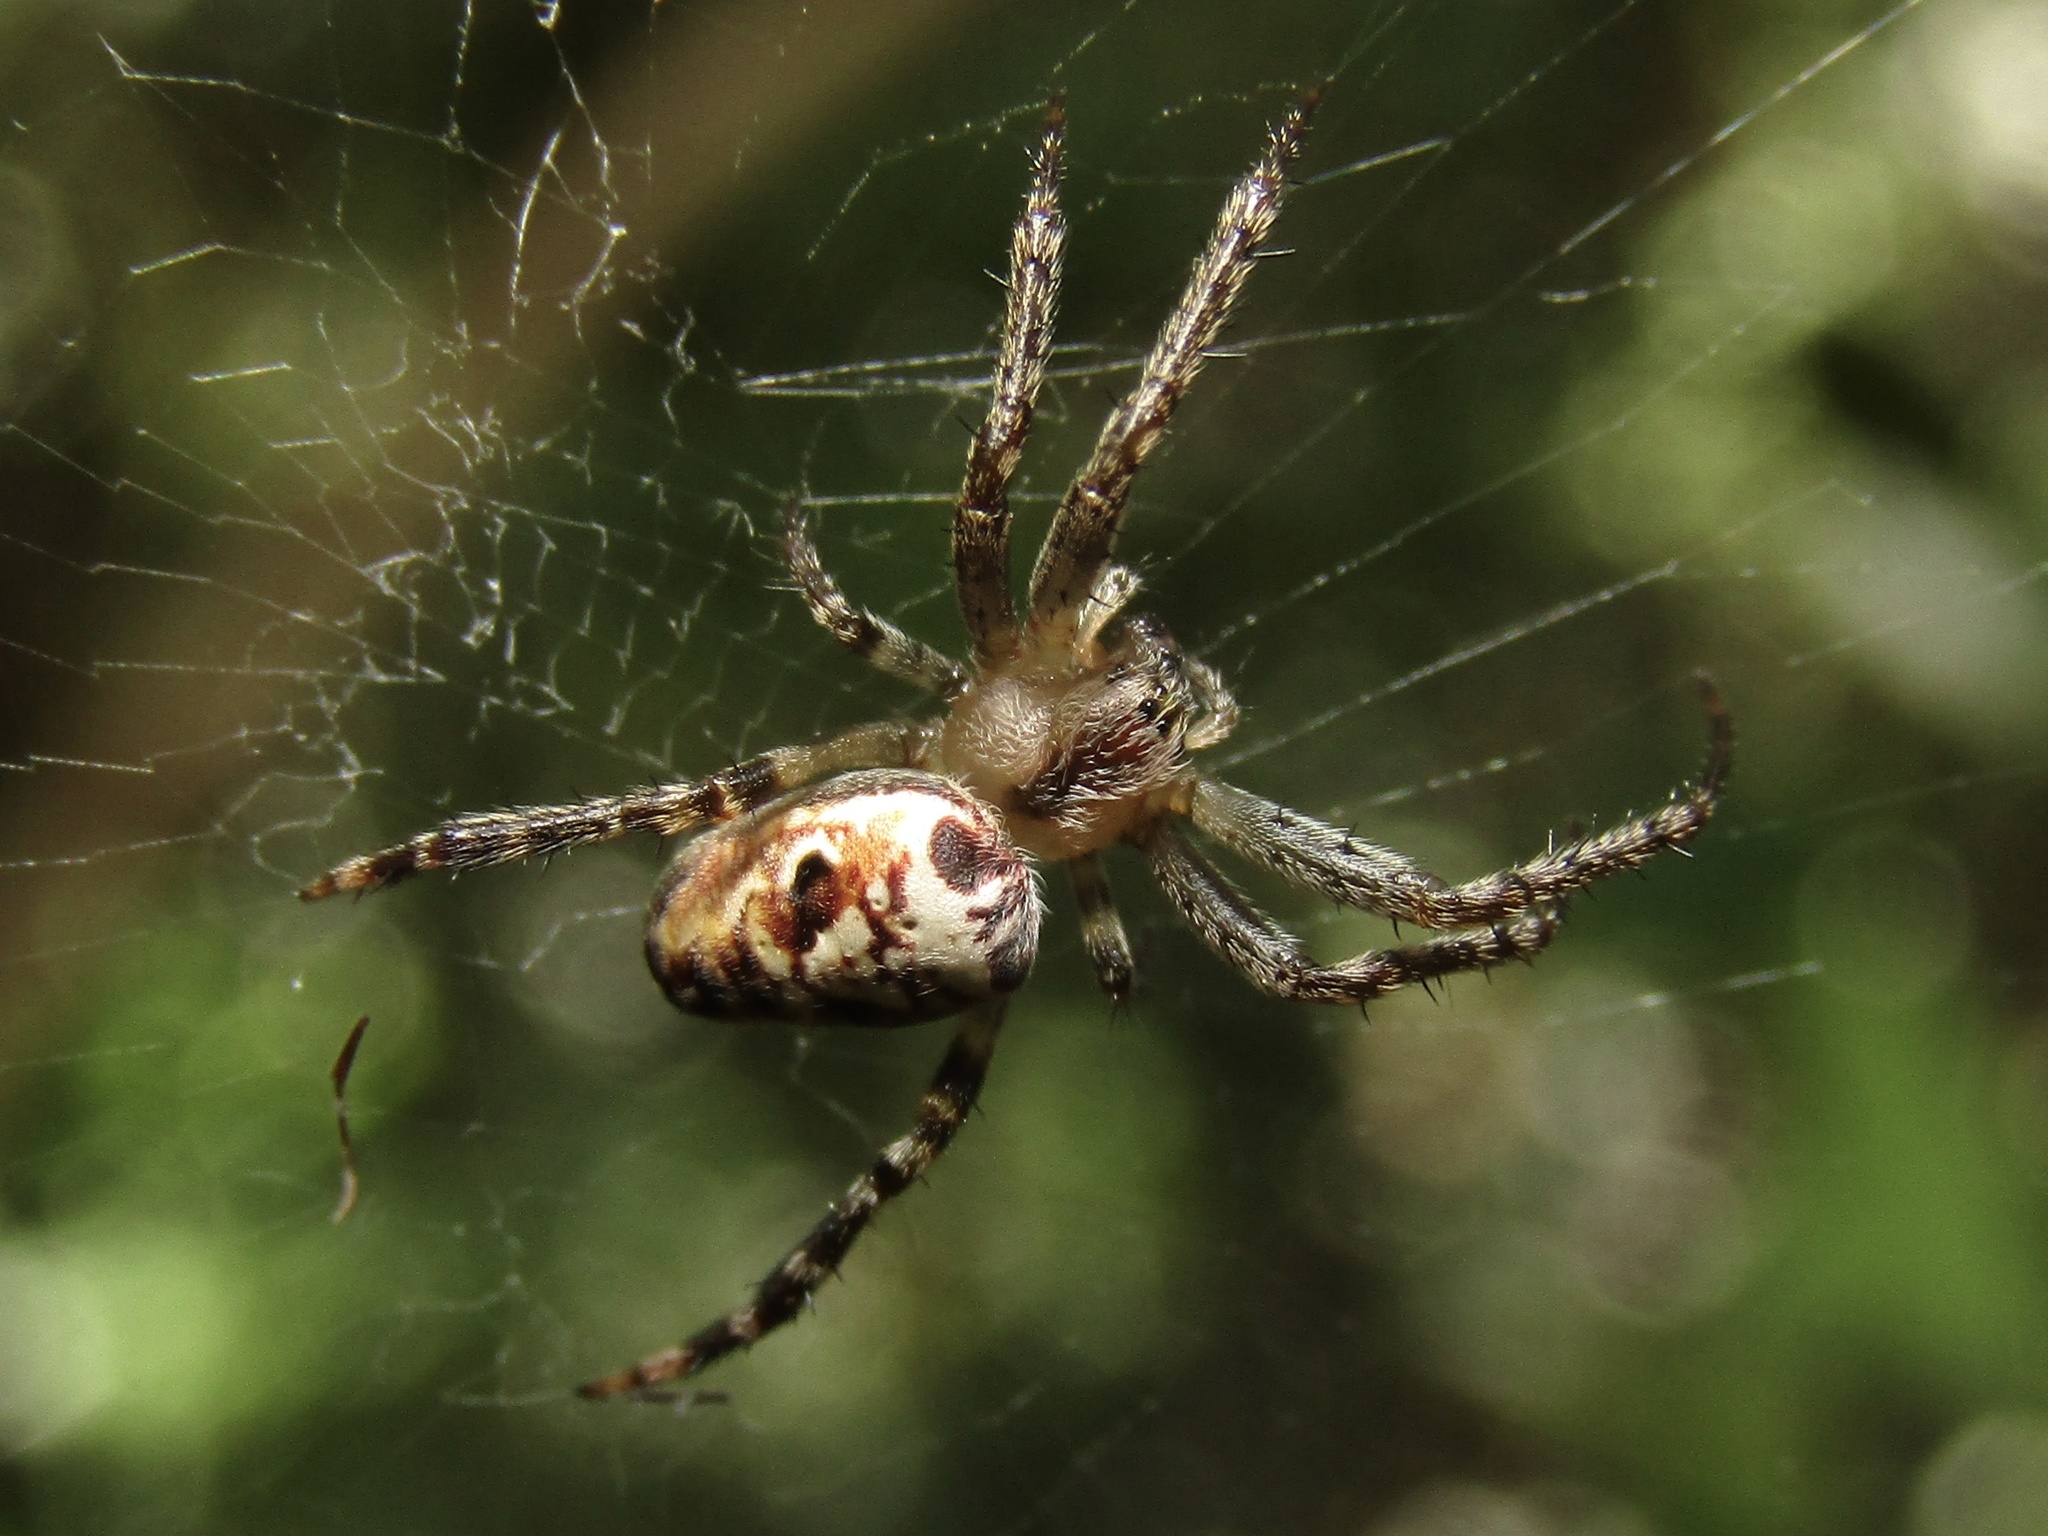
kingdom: Animalia
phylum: Arthropoda
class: Arachnida
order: Araneae
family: Araneidae
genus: Plebs
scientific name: Plebs eburnus
